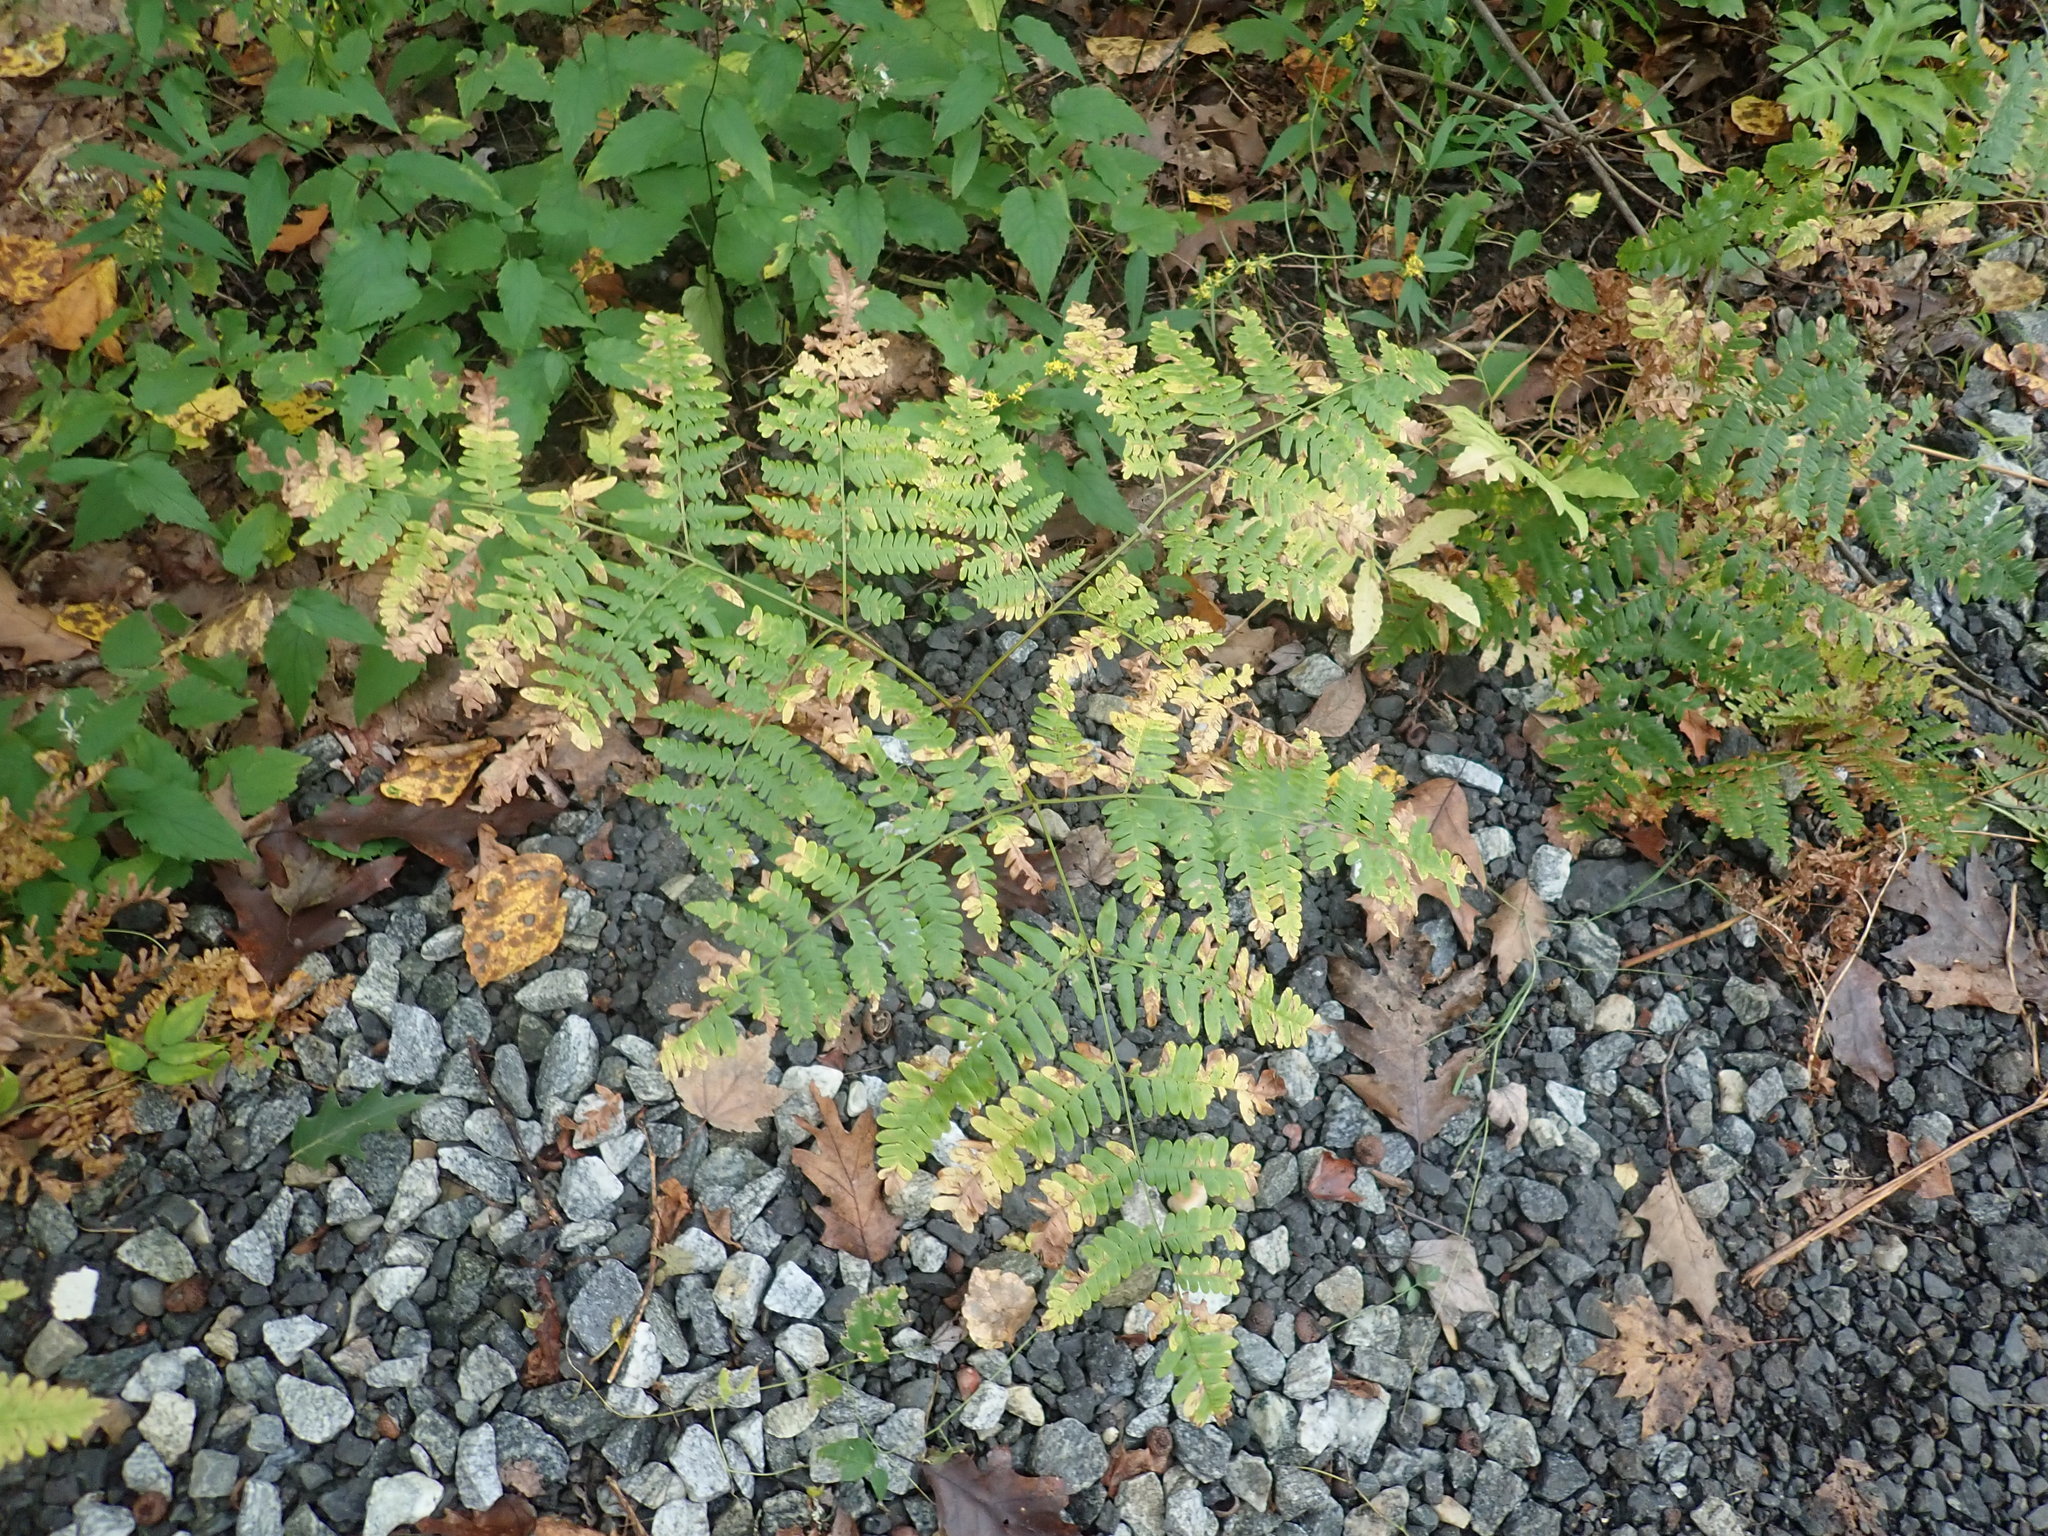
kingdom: Plantae
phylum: Tracheophyta
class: Polypodiopsida
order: Polypodiales
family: Dennstaedtiaceae
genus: Pteridium
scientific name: Pteridium aquilinum
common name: Bracken
